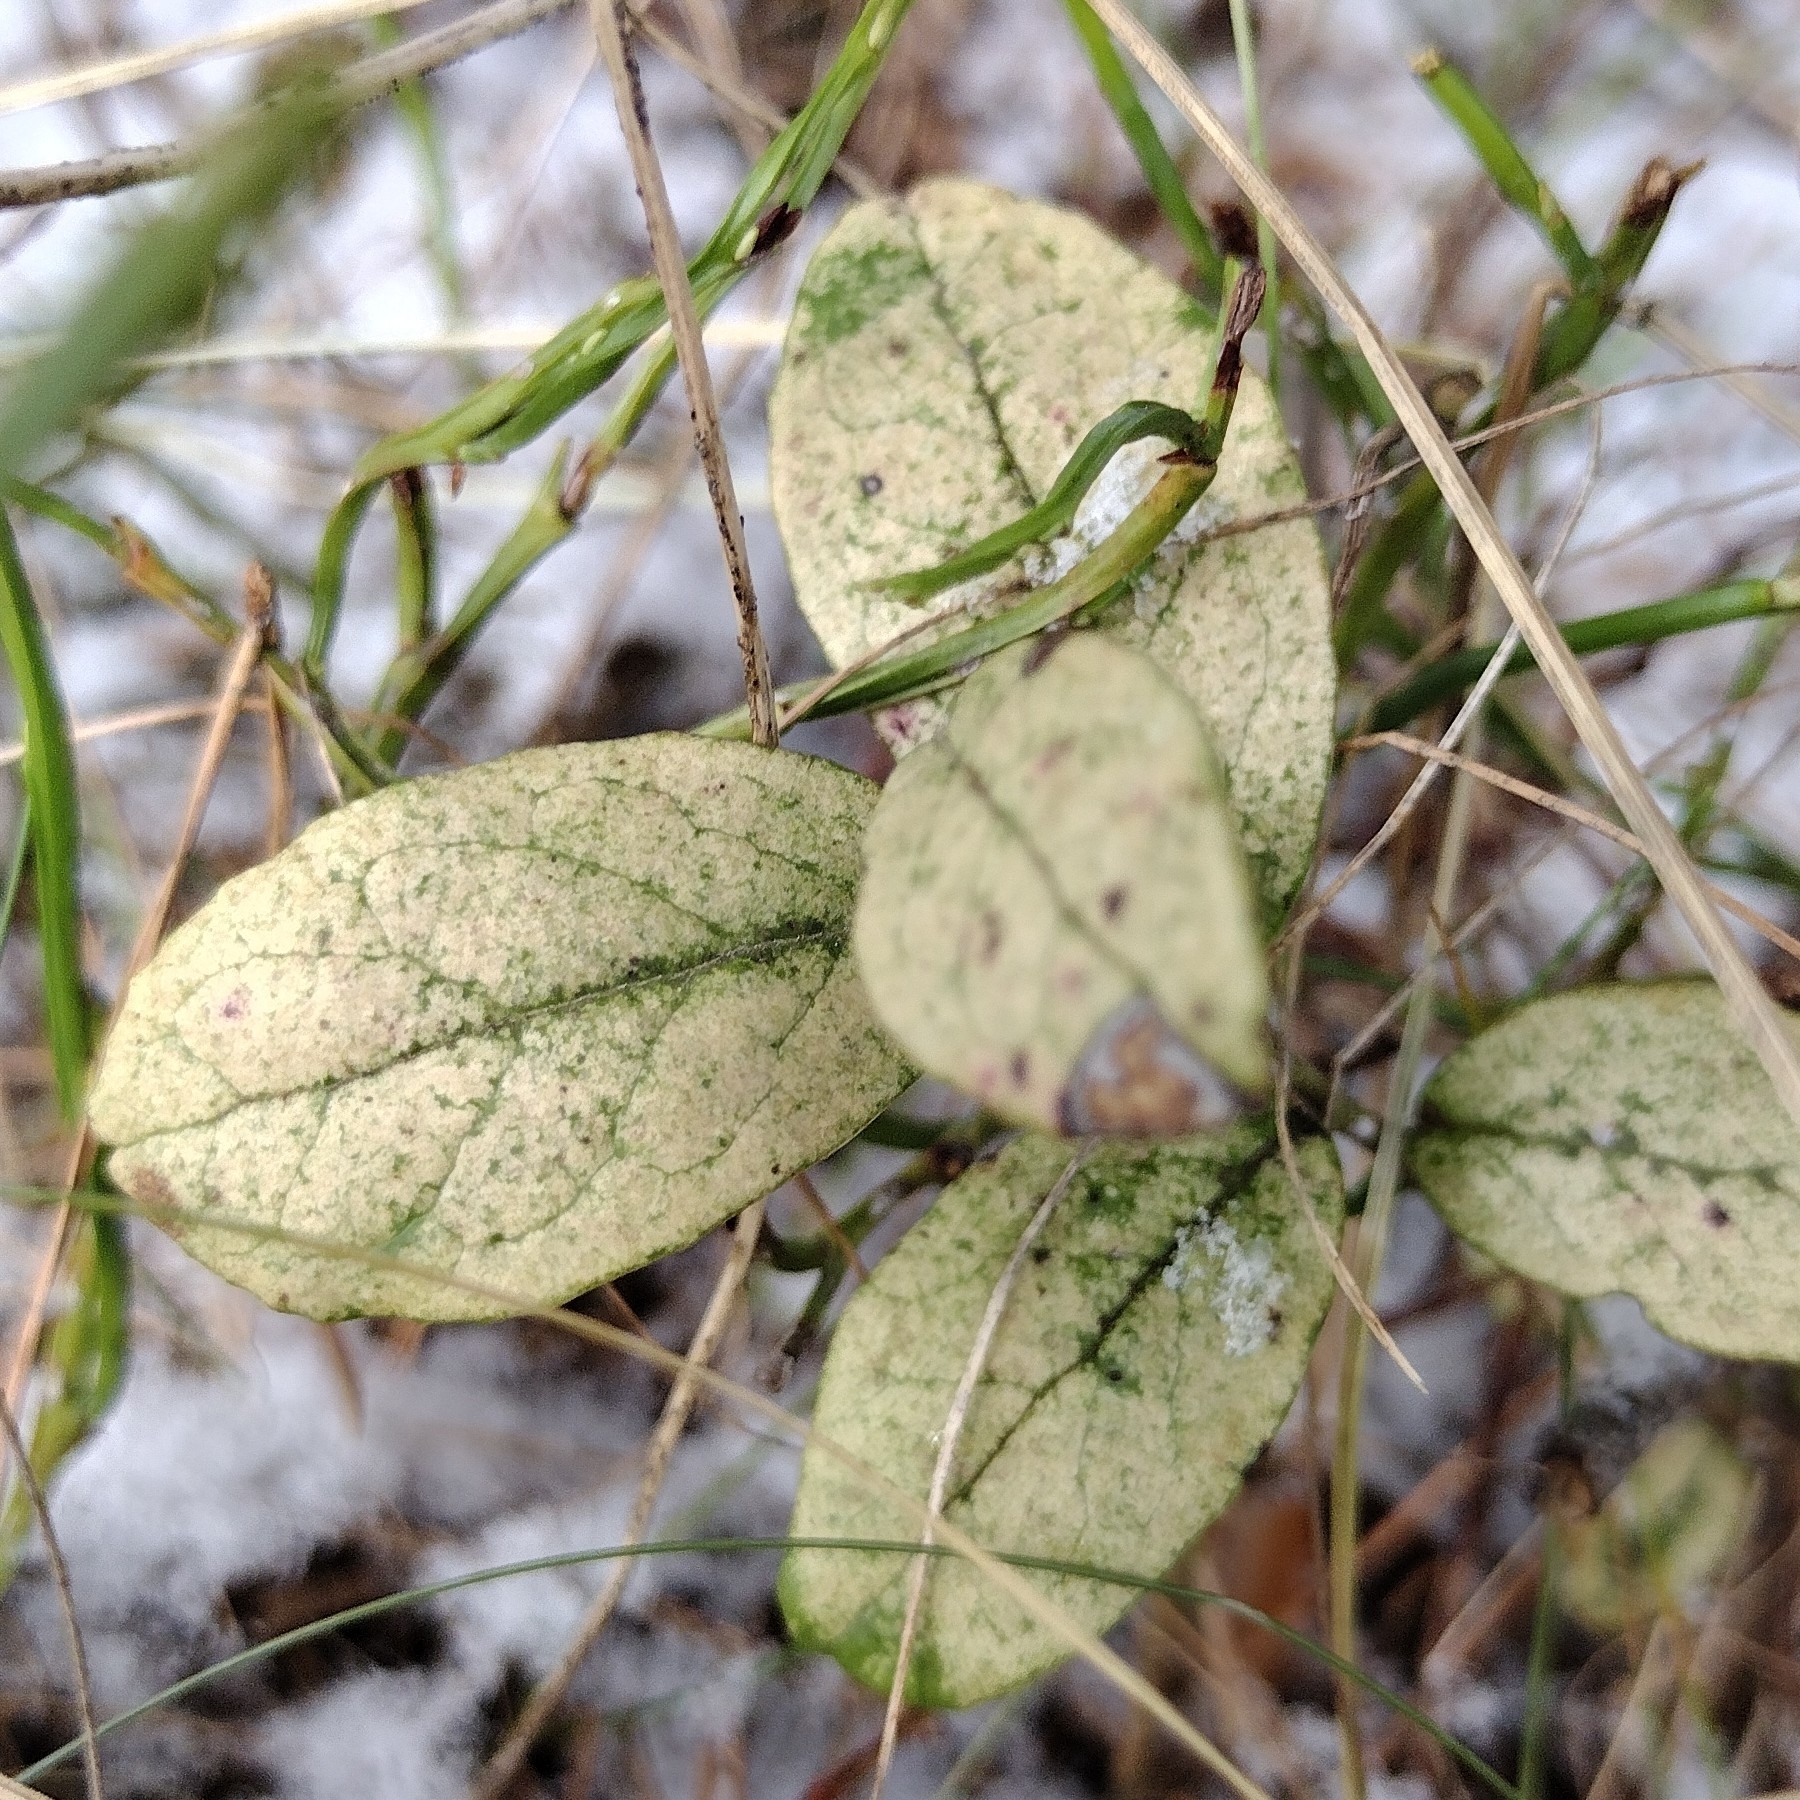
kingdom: Plantae
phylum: Tracheophyta
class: Magnoliopsida
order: Ericales
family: Ericaceae
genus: Vaccinium
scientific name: Vaccinium vitis-idaea
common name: Cowberry
